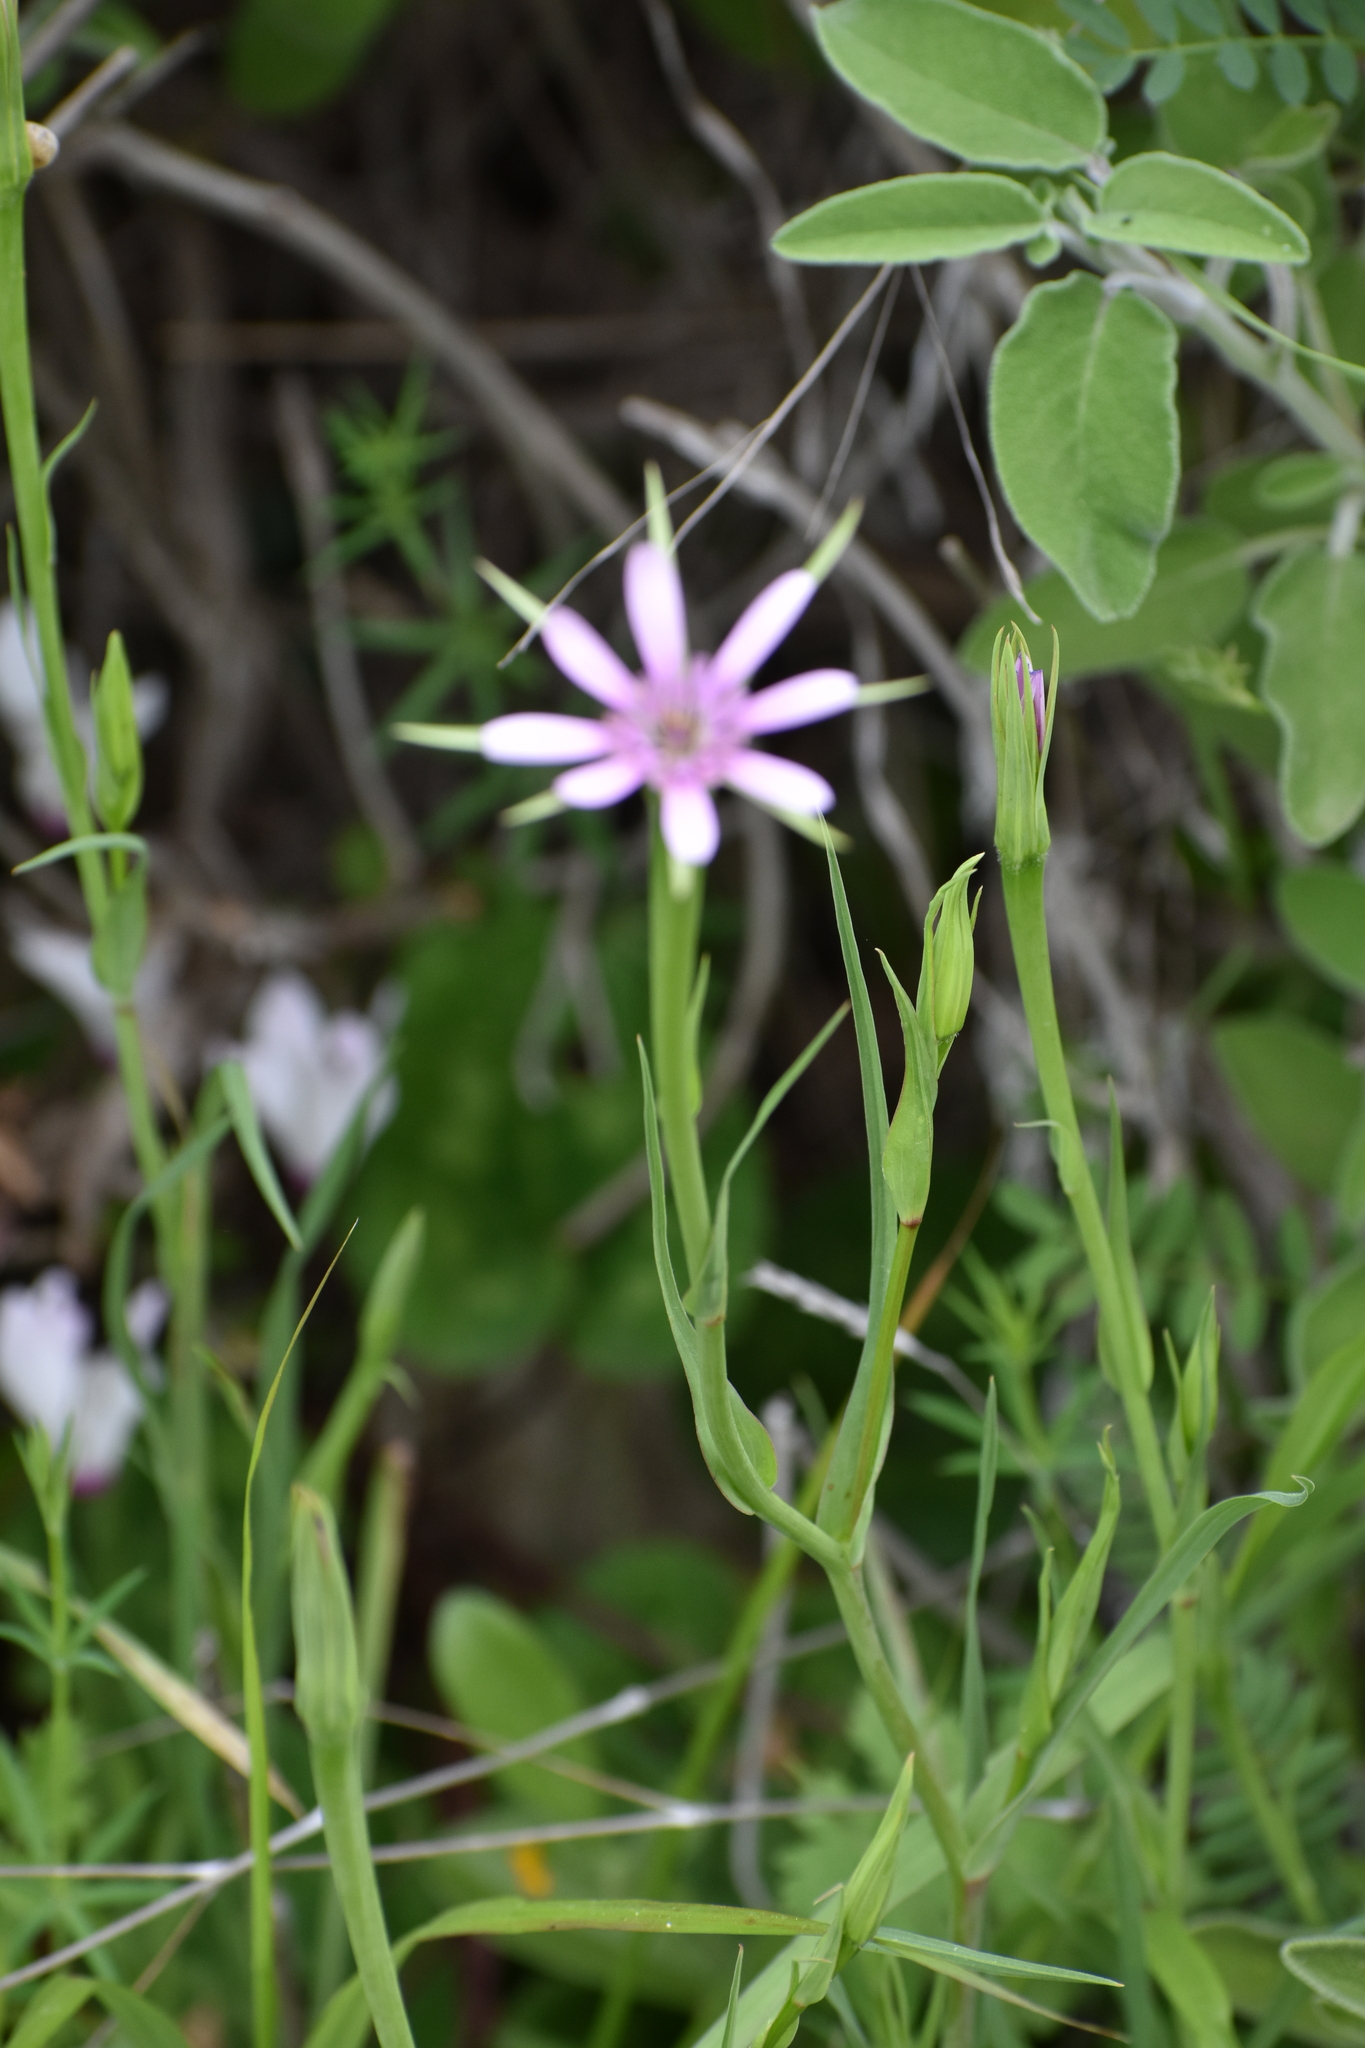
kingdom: Plantae
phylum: Tracheophyta
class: Magnoliopsida
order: Asterales
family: Asteraceae
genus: Geropogon
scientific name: Geropogon hybridus
